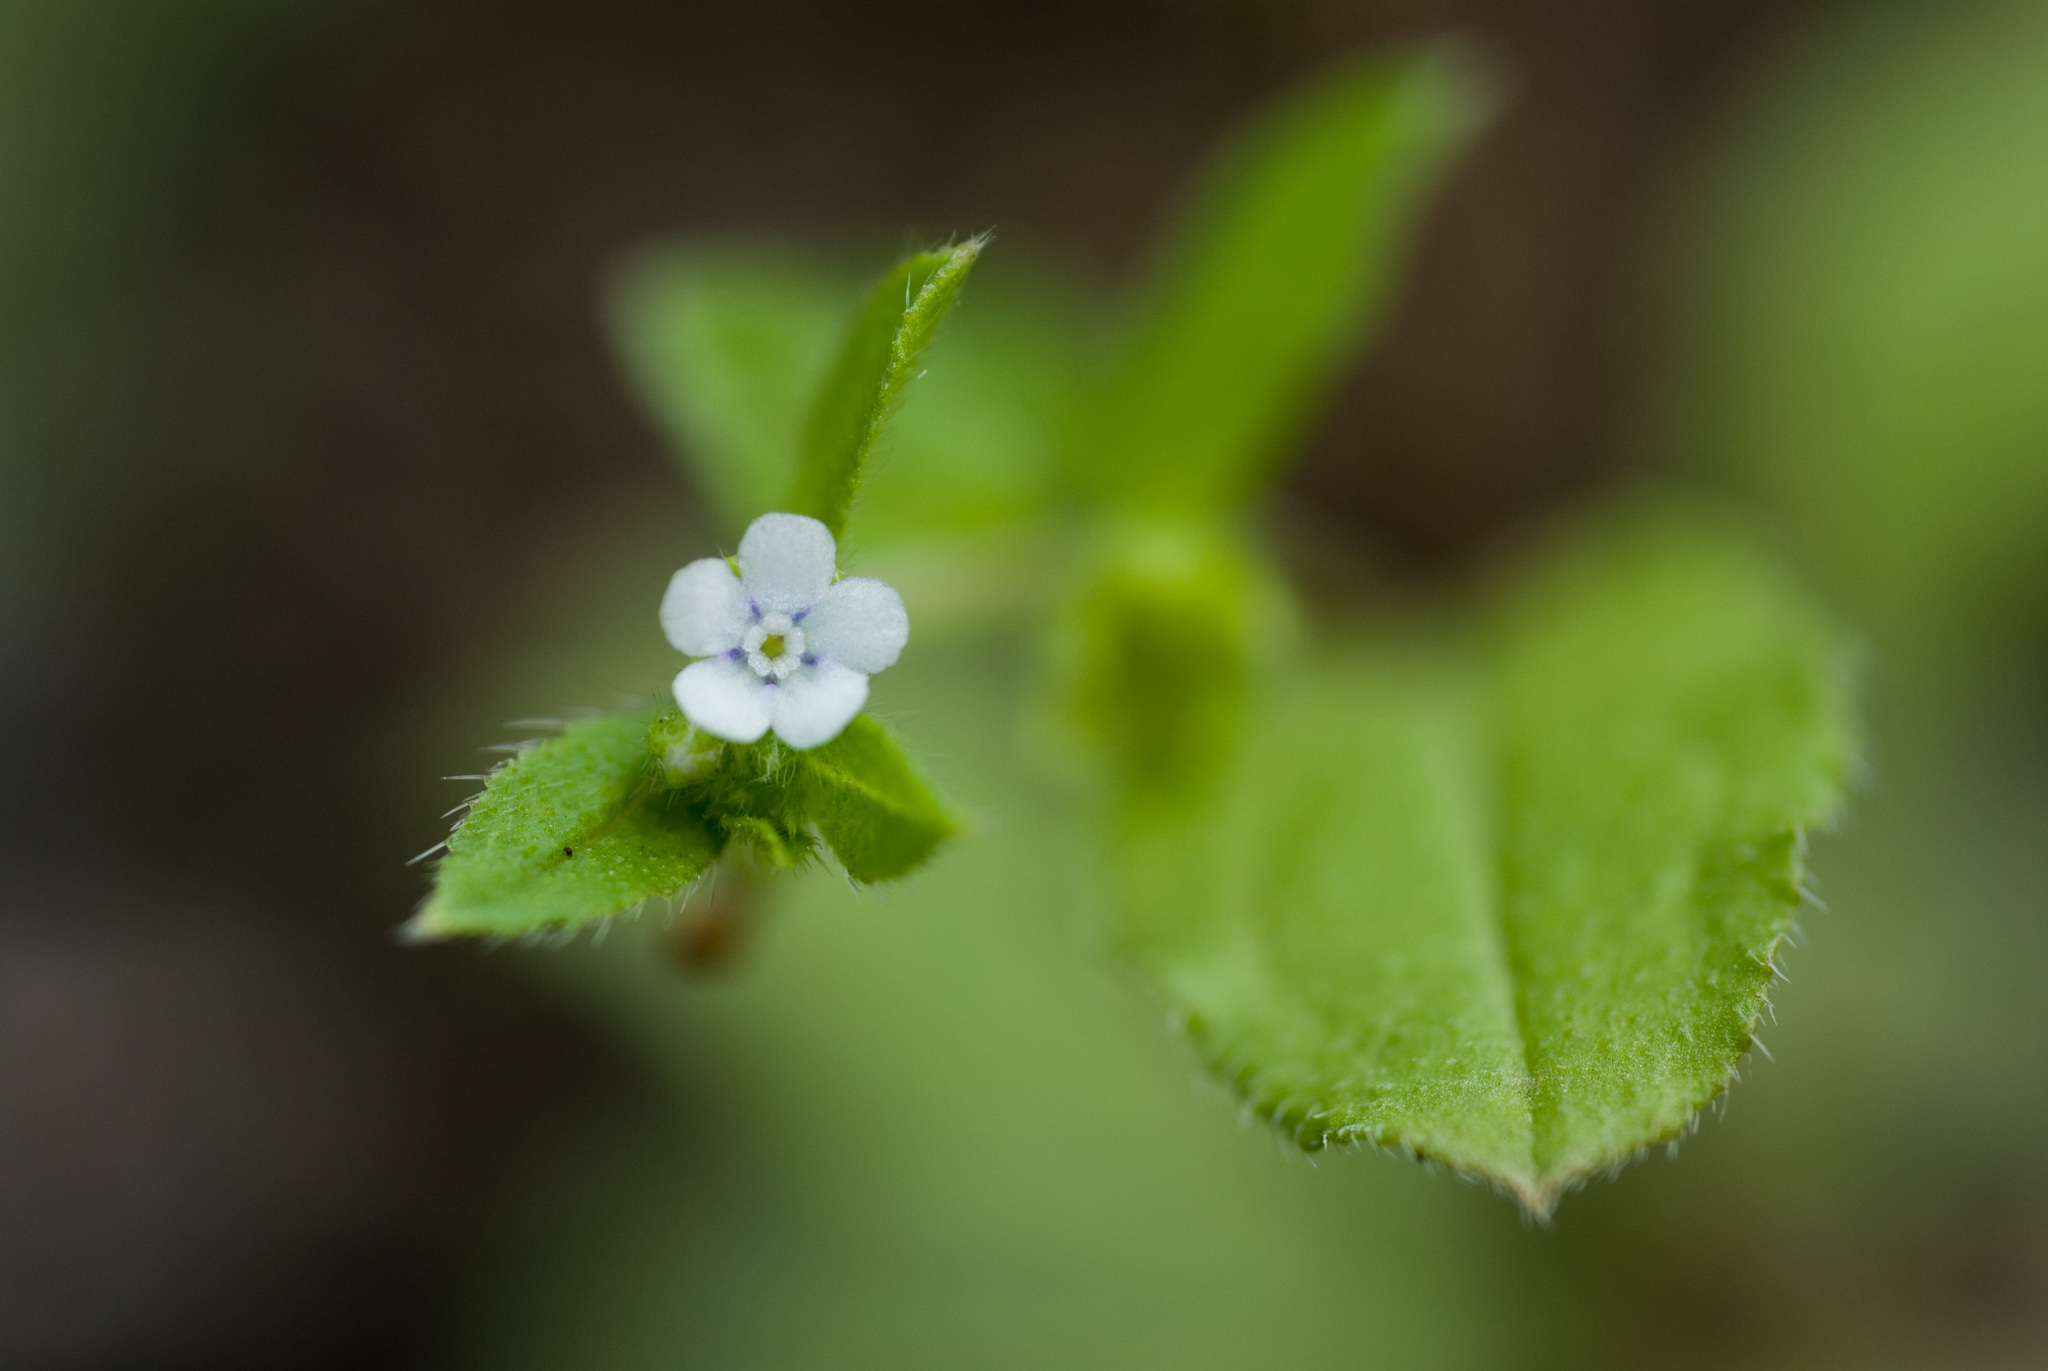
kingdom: Plantae
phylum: Tracheophyta
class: Magnoliopsida
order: Boraginales
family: Boraginaceae
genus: Bothriospermum
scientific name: Bothriospermum zeylanicum
